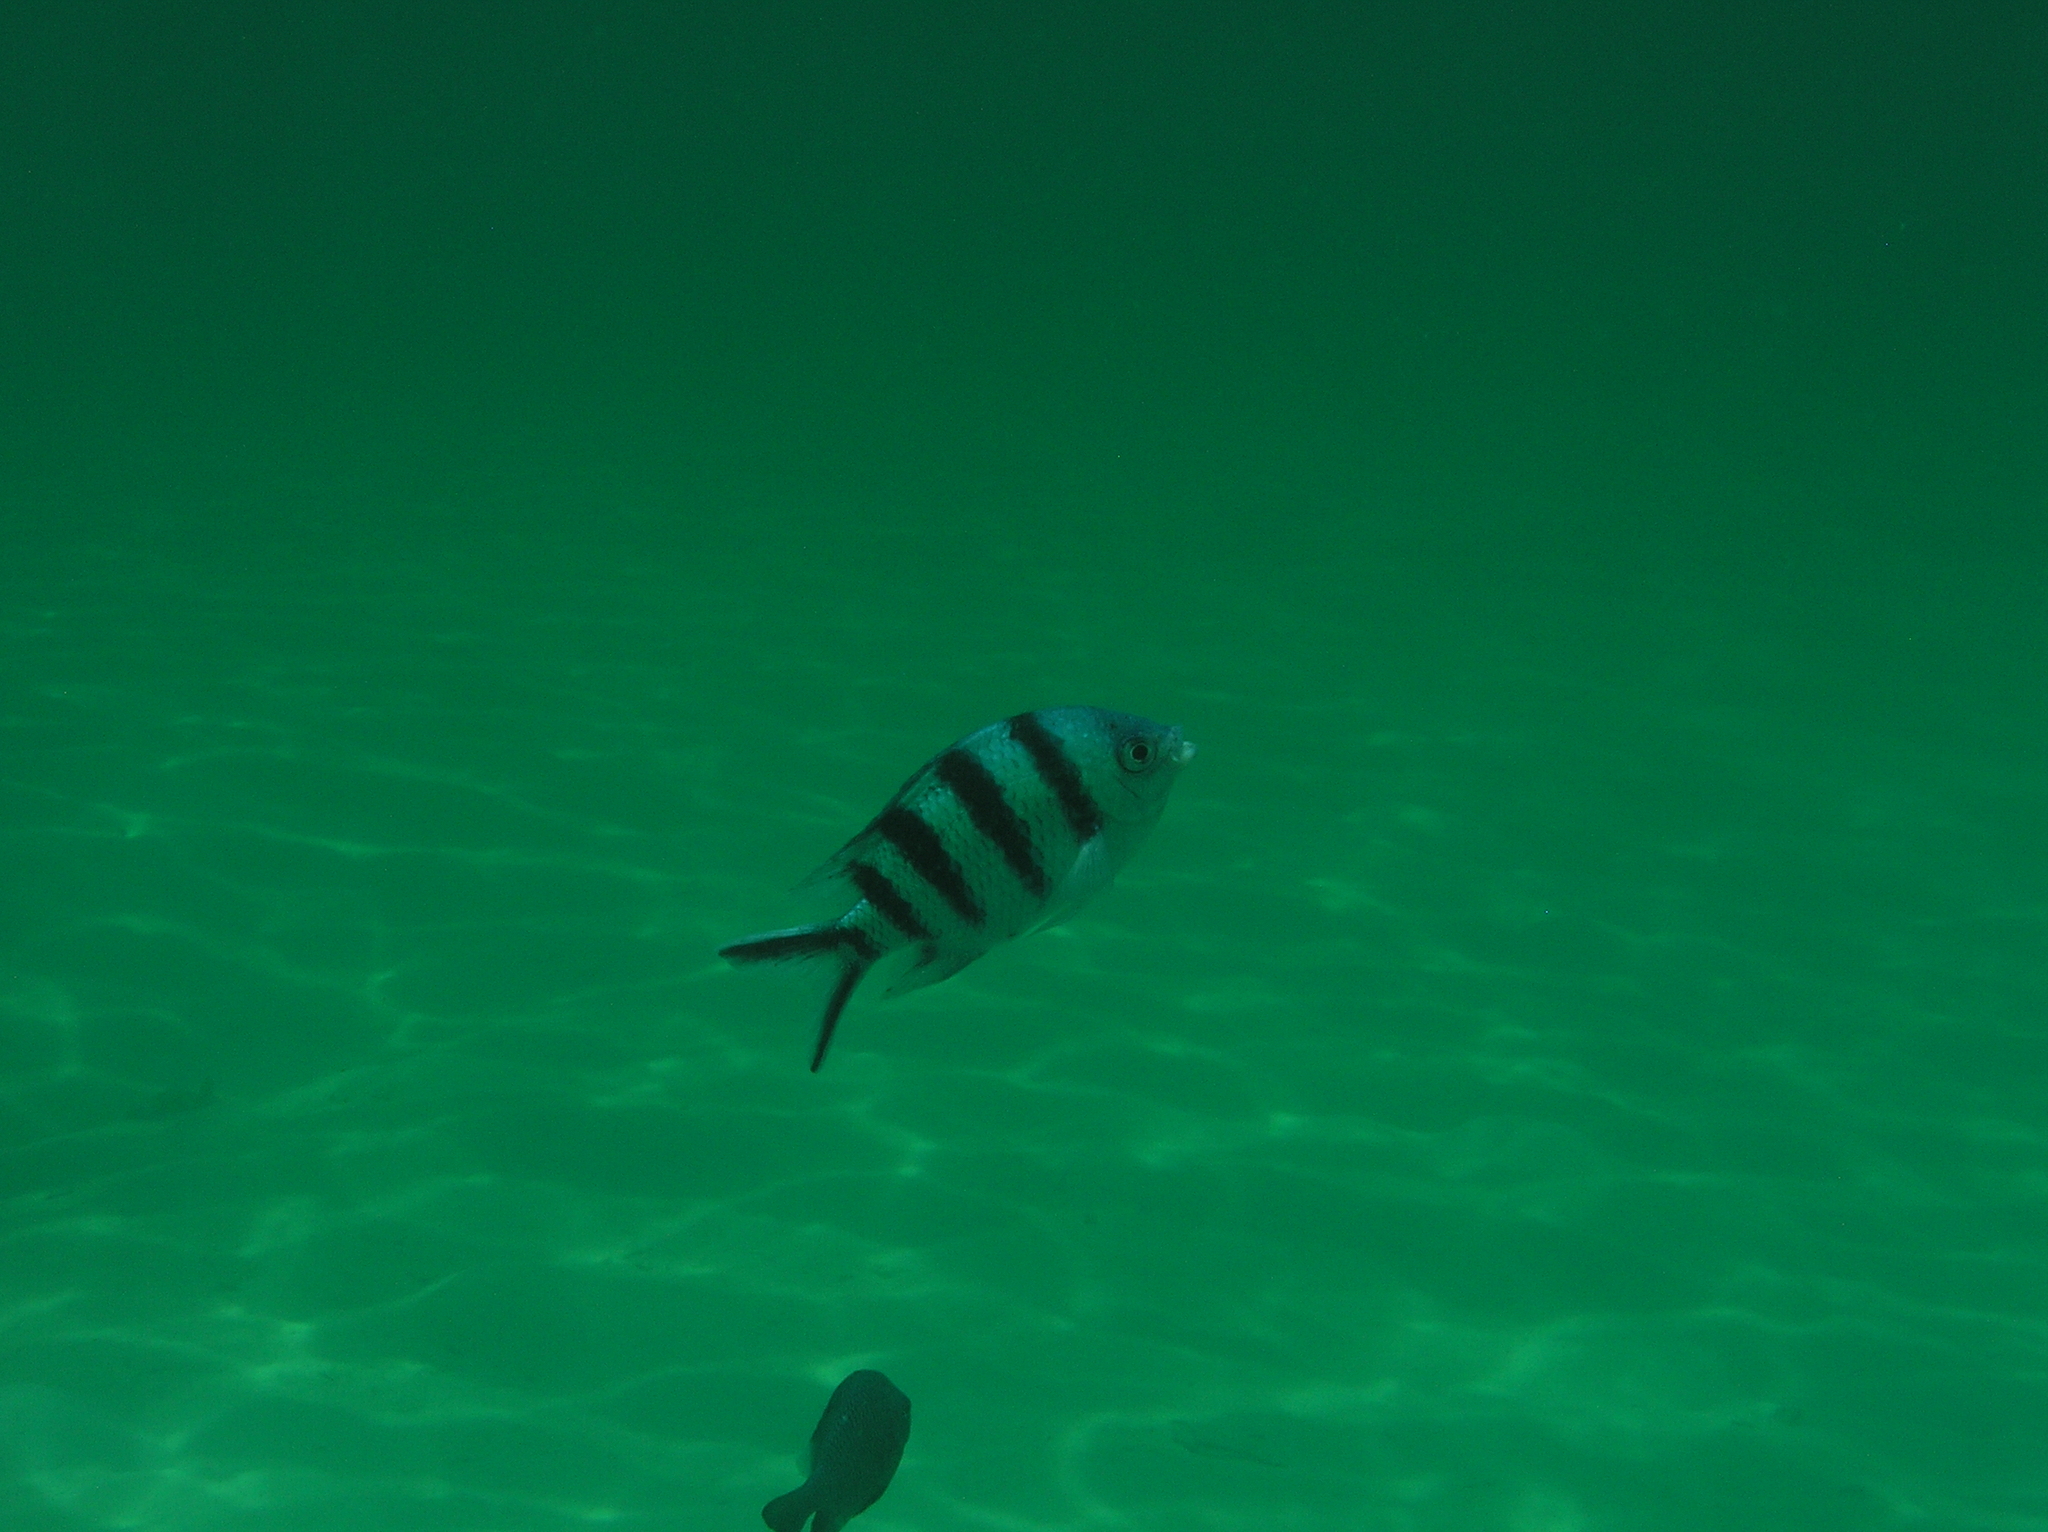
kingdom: Animalia
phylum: Chordata
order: Perciformes
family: Pomacentridae
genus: Abudefduf
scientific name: Abudefduf sexfasciatus
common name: Scissortail sergeant
